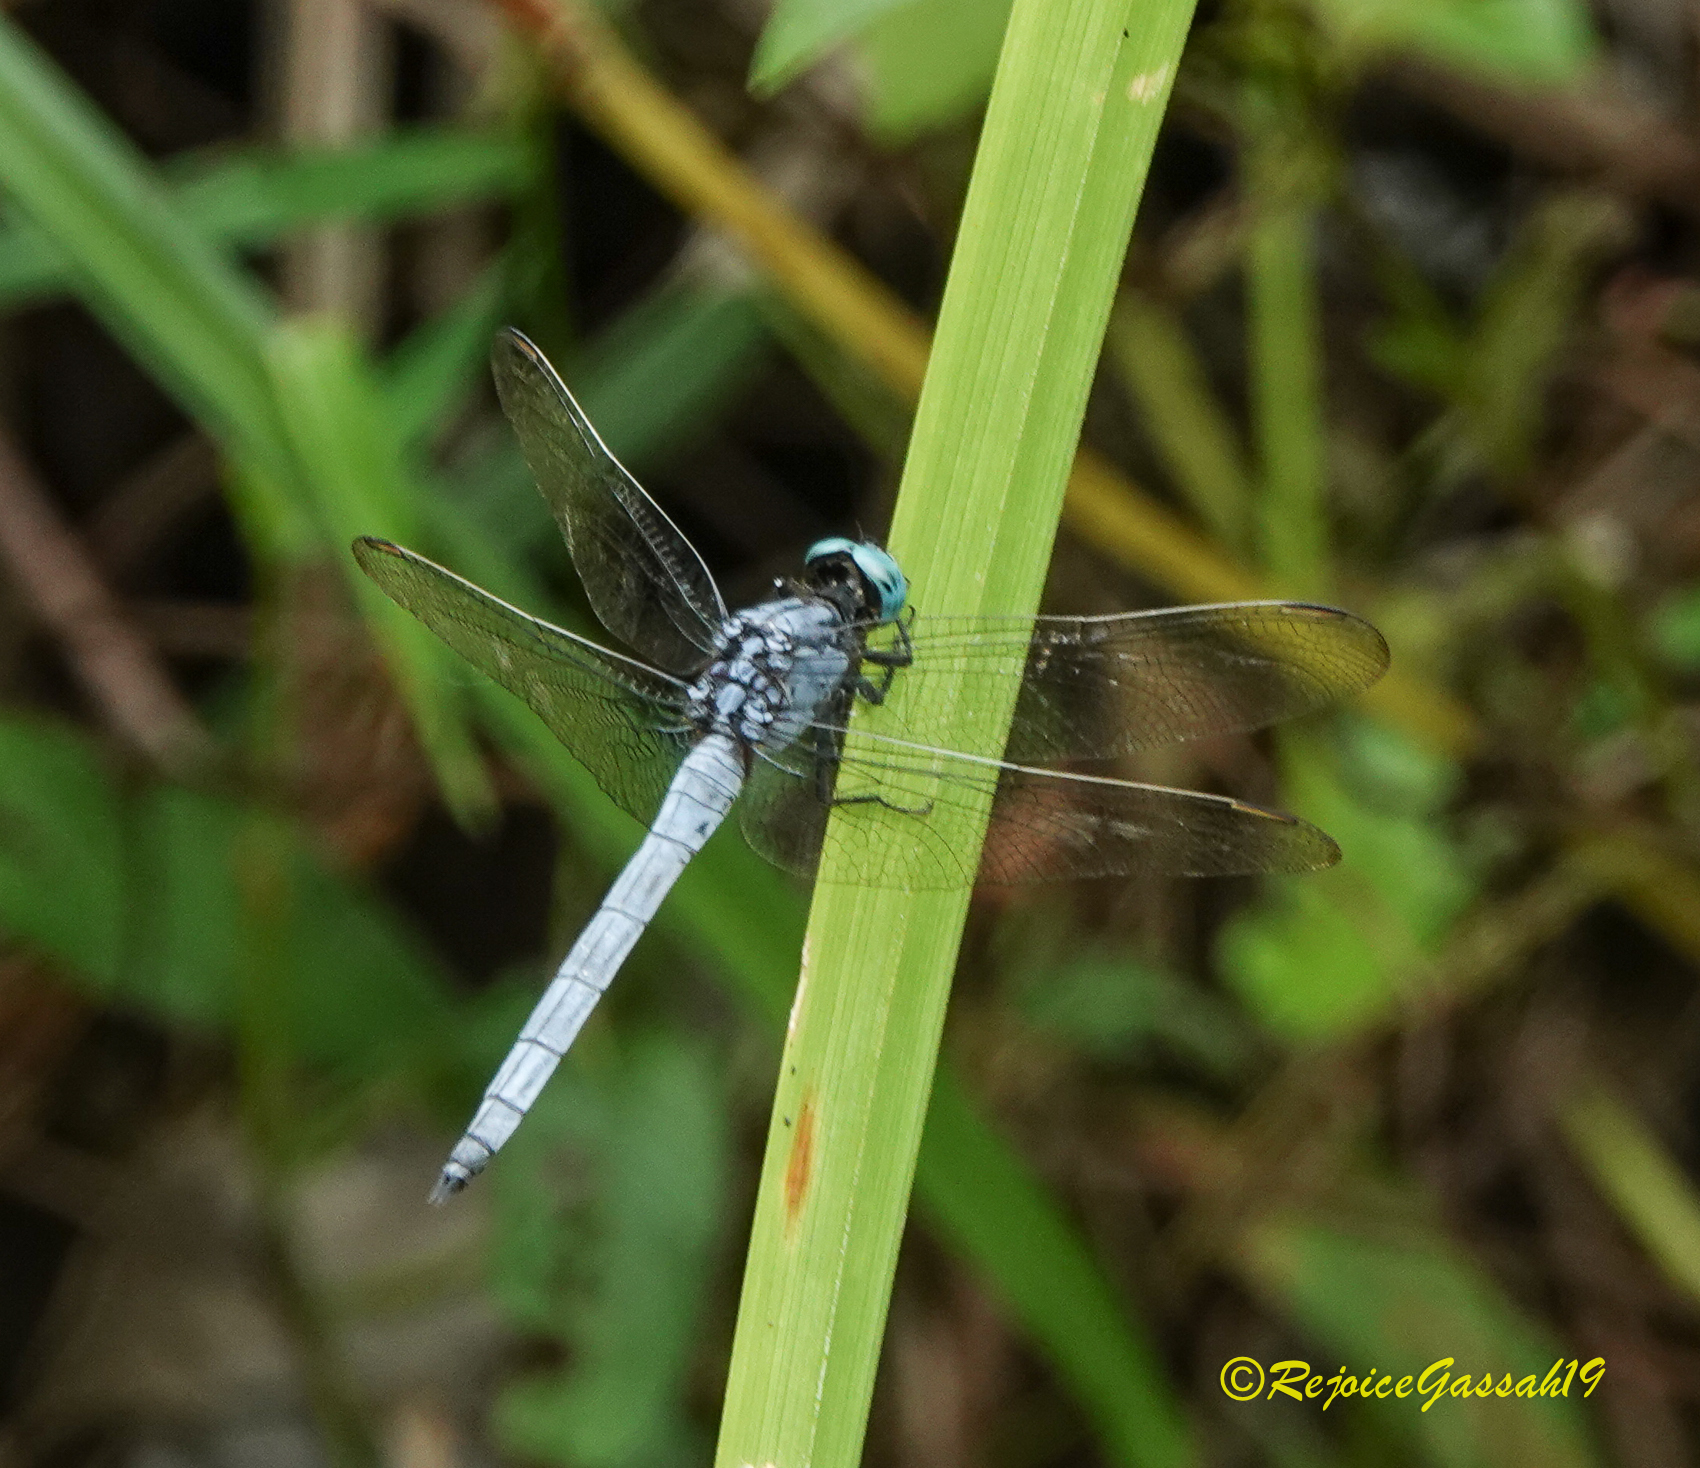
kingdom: Animalia
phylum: Arthropoda
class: Insecta
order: Odonata
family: Libellulidae
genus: Orthetrum
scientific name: Orthetrum luzonicum
